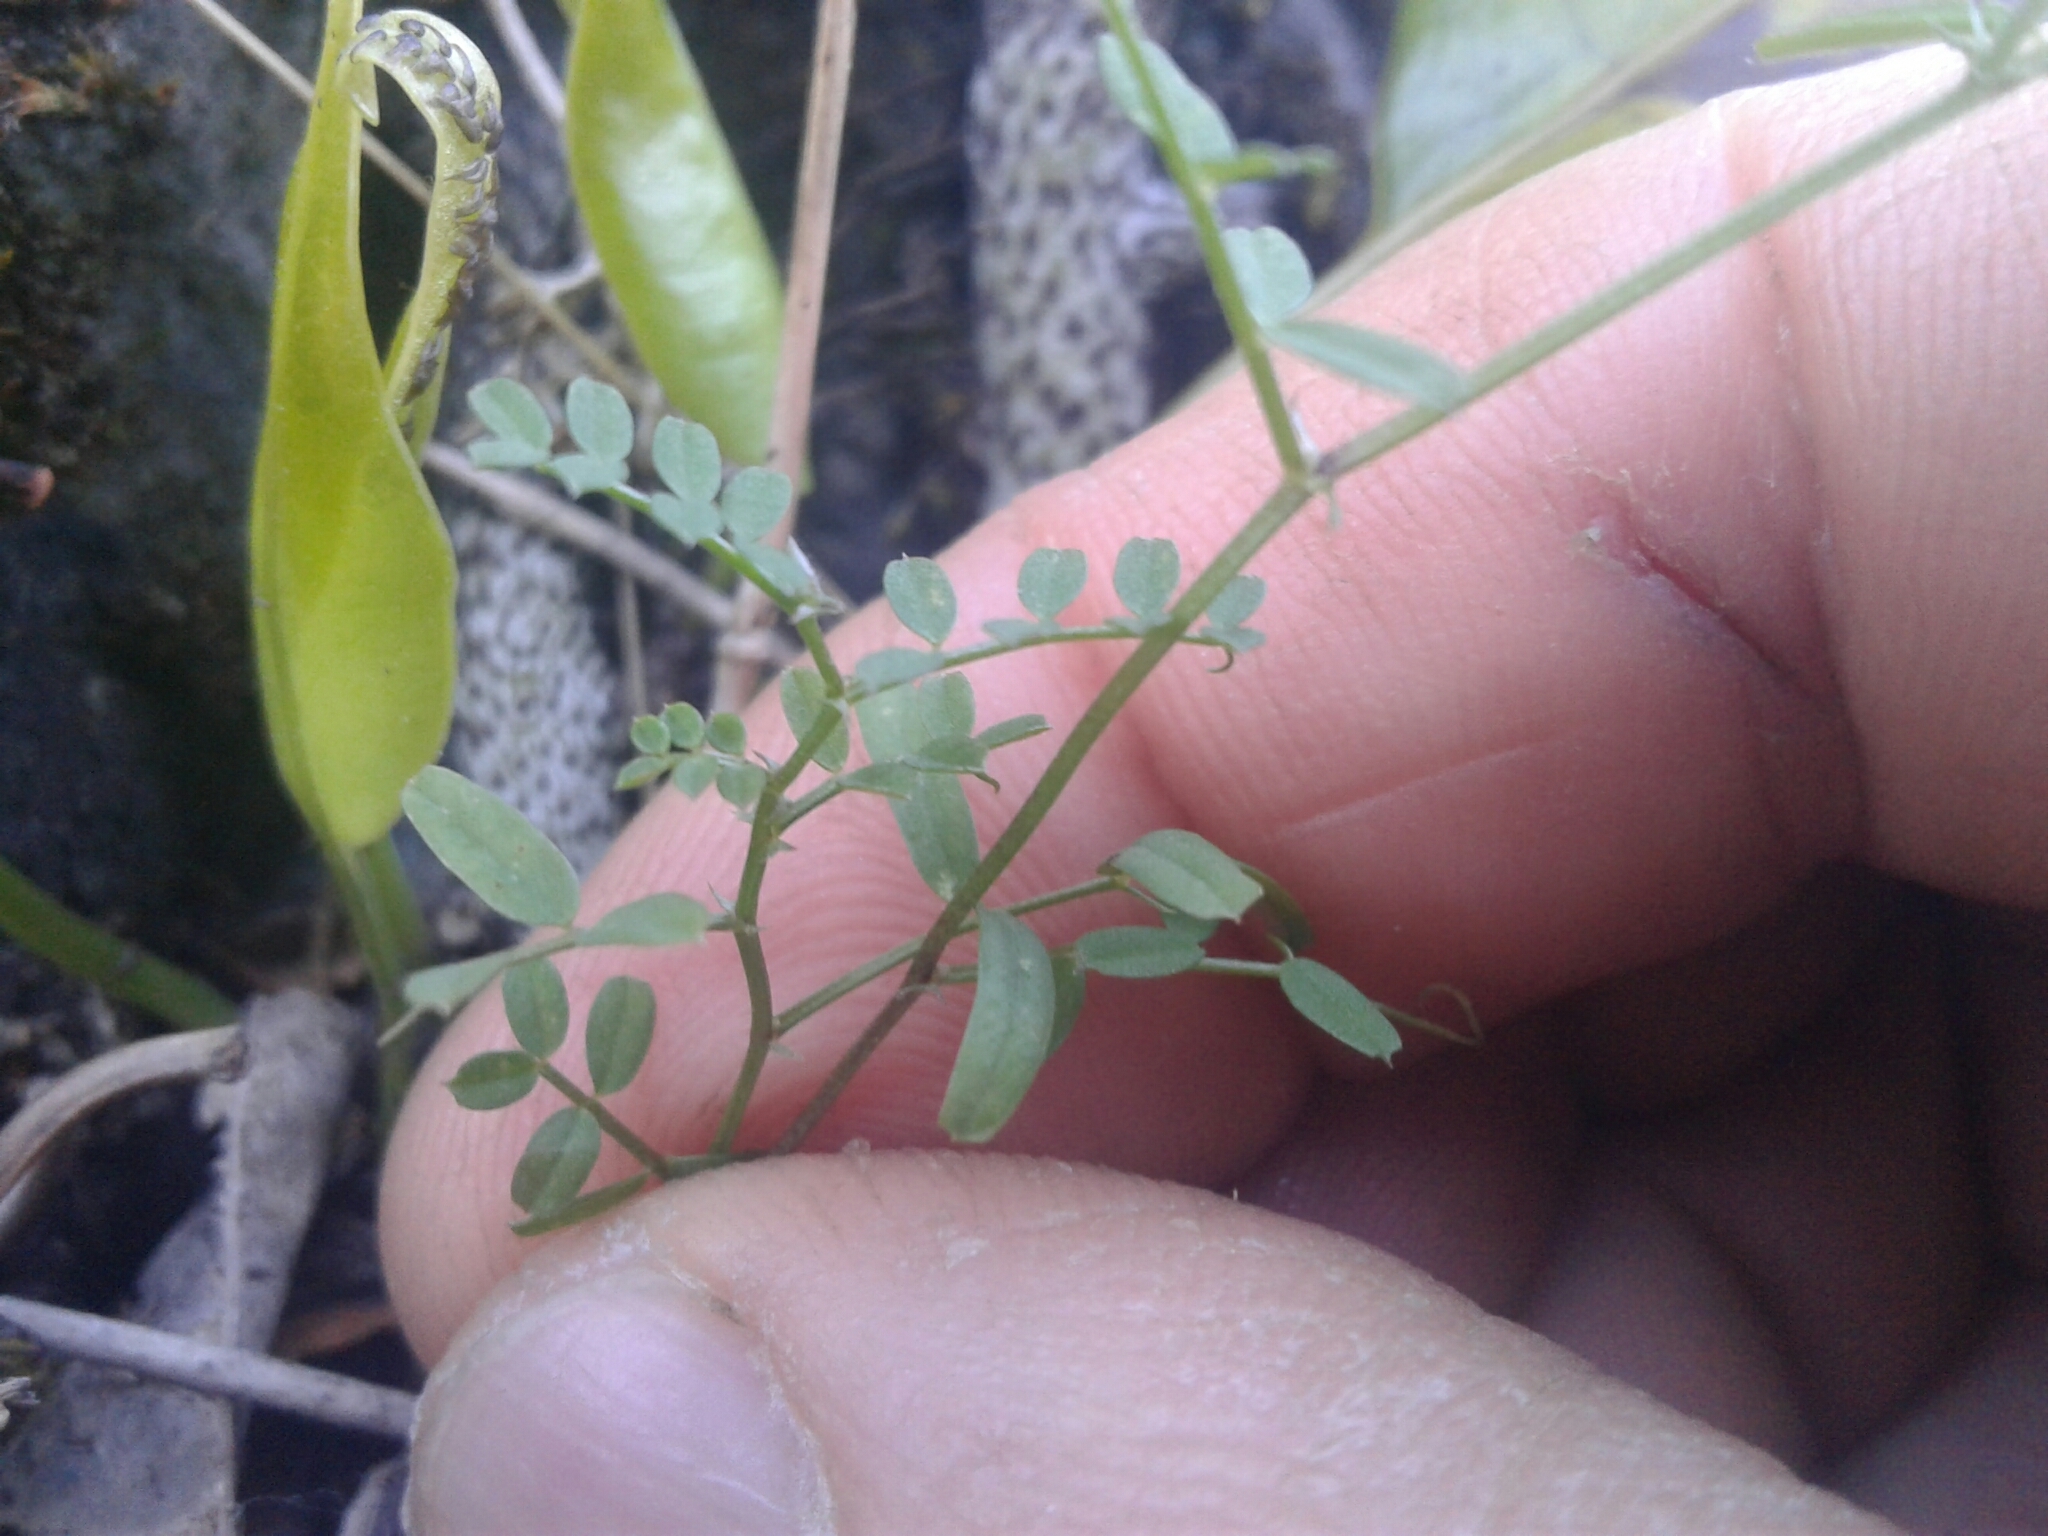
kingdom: Plantae
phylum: Tracheophyta
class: Magnoliopsida
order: Fabales
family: Fabaceae
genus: Vicia
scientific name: Vicia sativa
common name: Garden vetch
